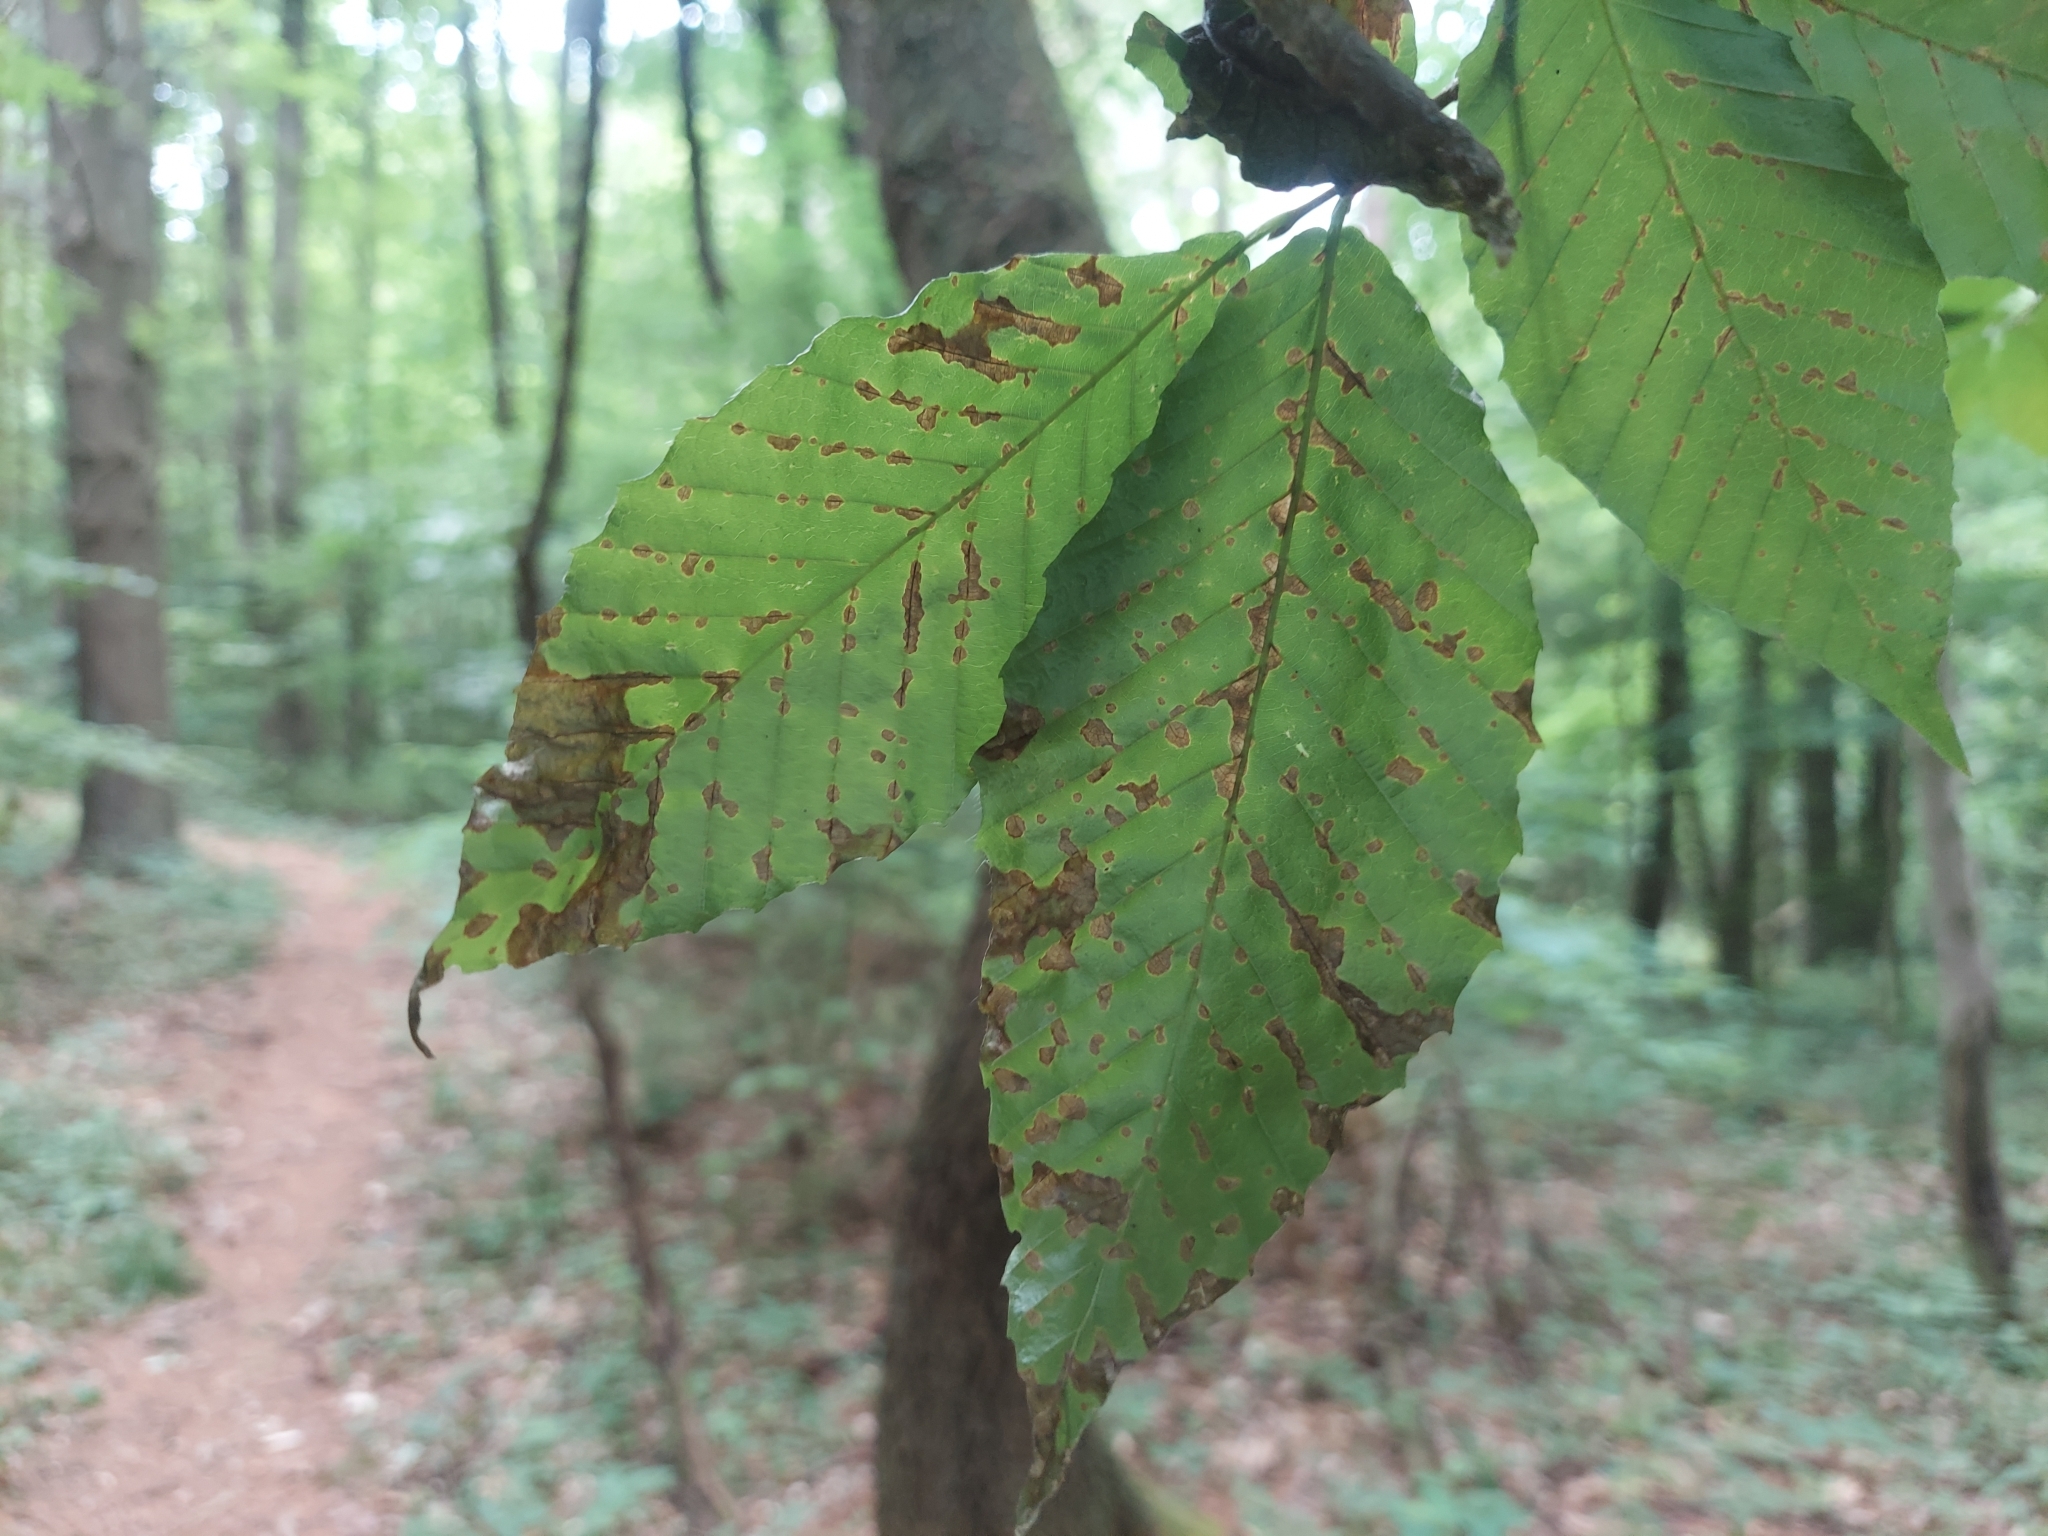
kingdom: Plantae
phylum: Tracheophyta
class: Magnoliopsida
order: Fagales
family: Fagaceae
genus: Fagus
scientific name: Fagus grandifolia
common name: American beech
